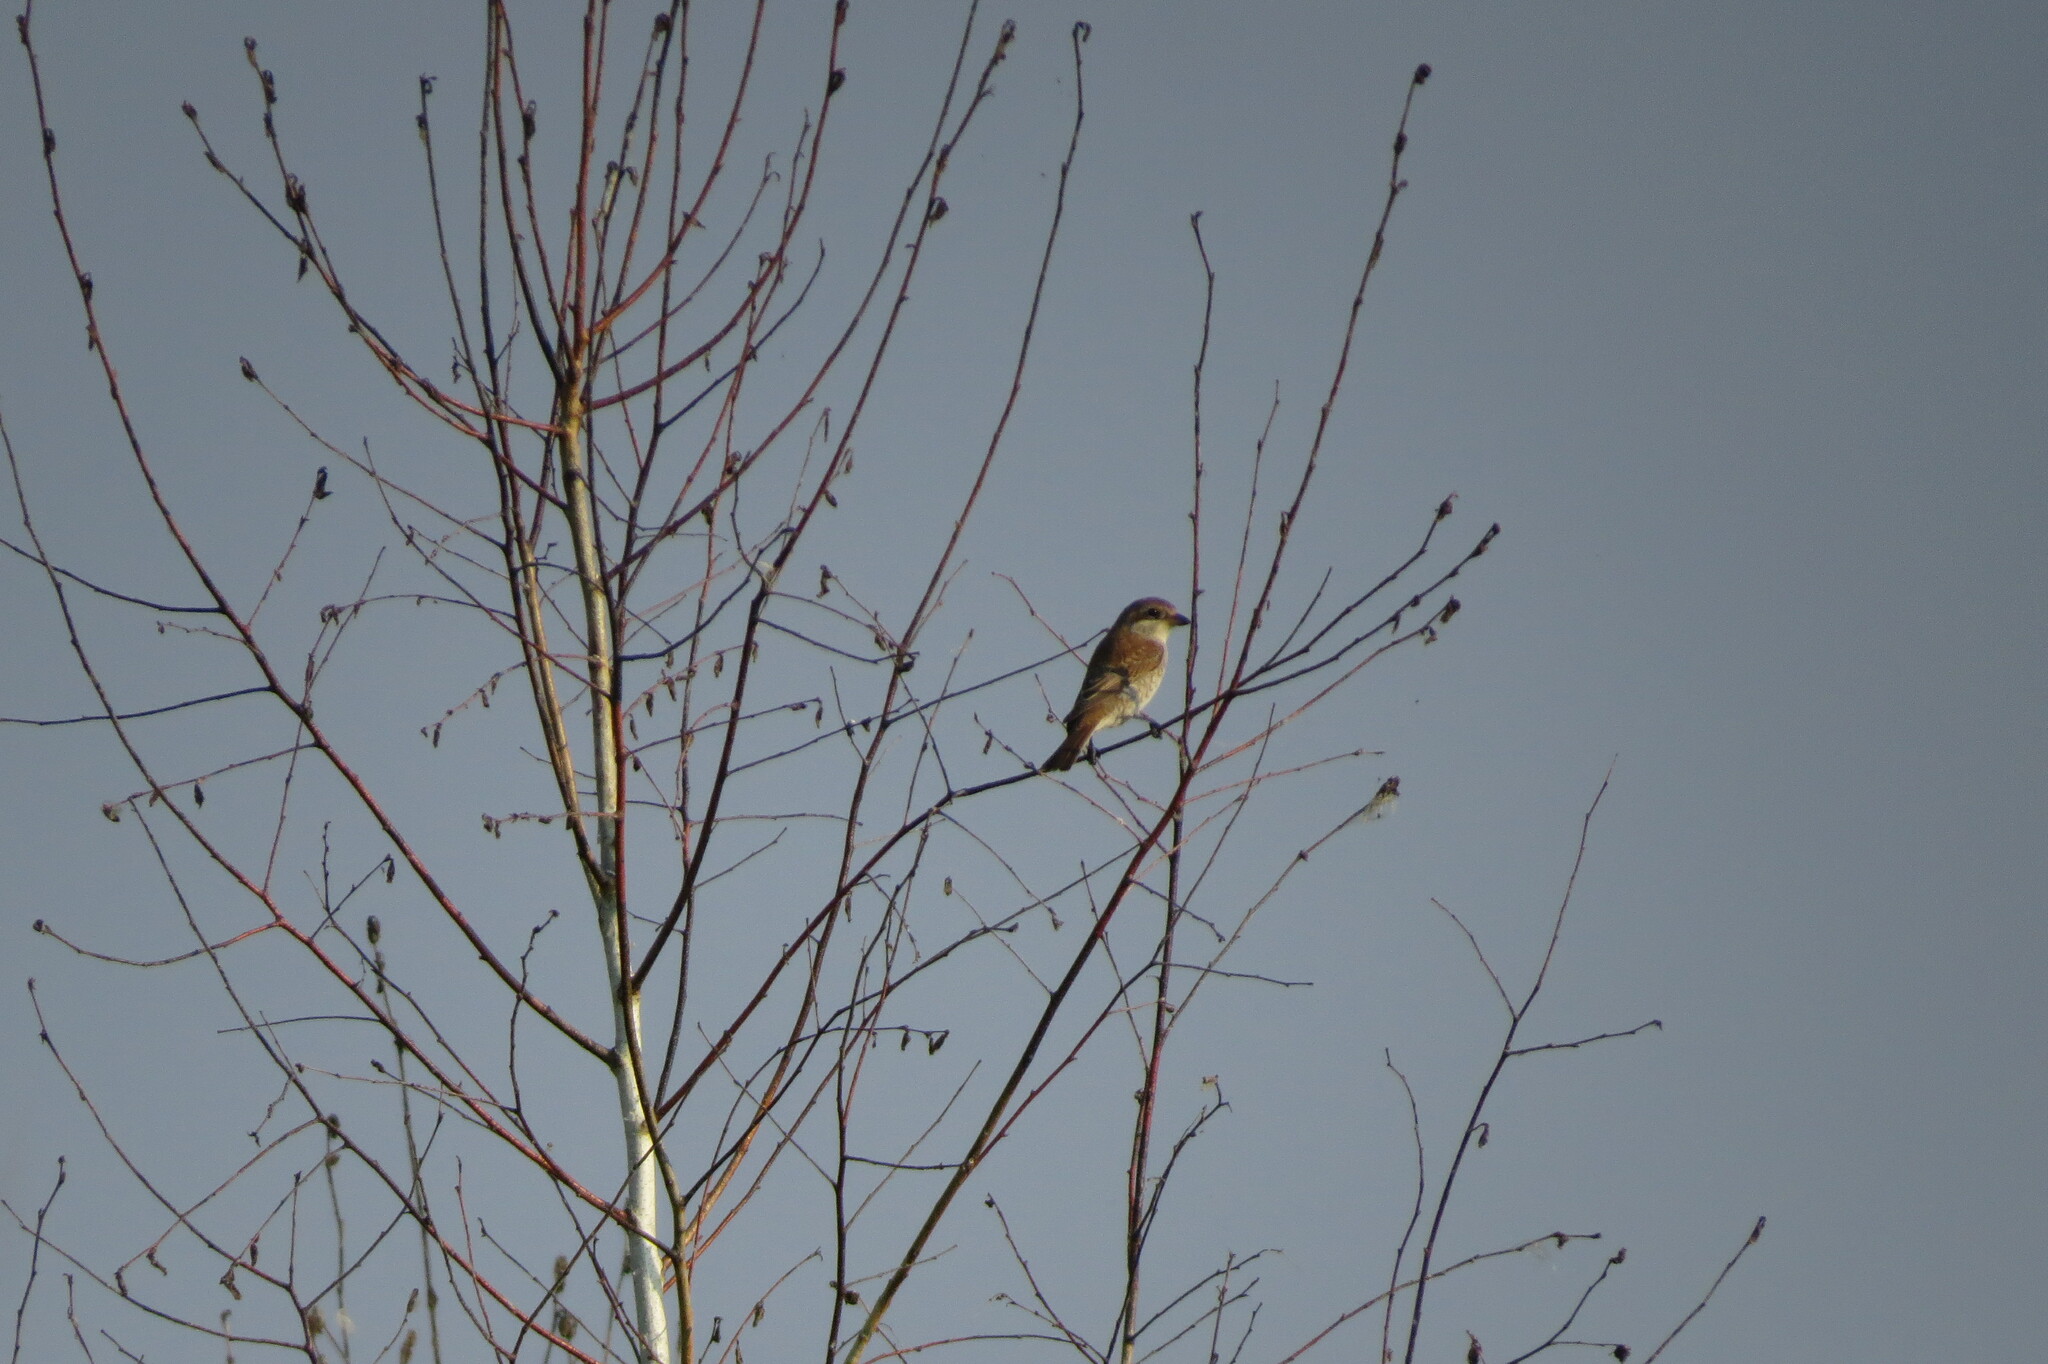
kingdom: Animalia
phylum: Chordata
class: Aves
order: Passeriformes
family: Laniidae
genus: Lanius
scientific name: Lanius collurio
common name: Red-backed shrike
